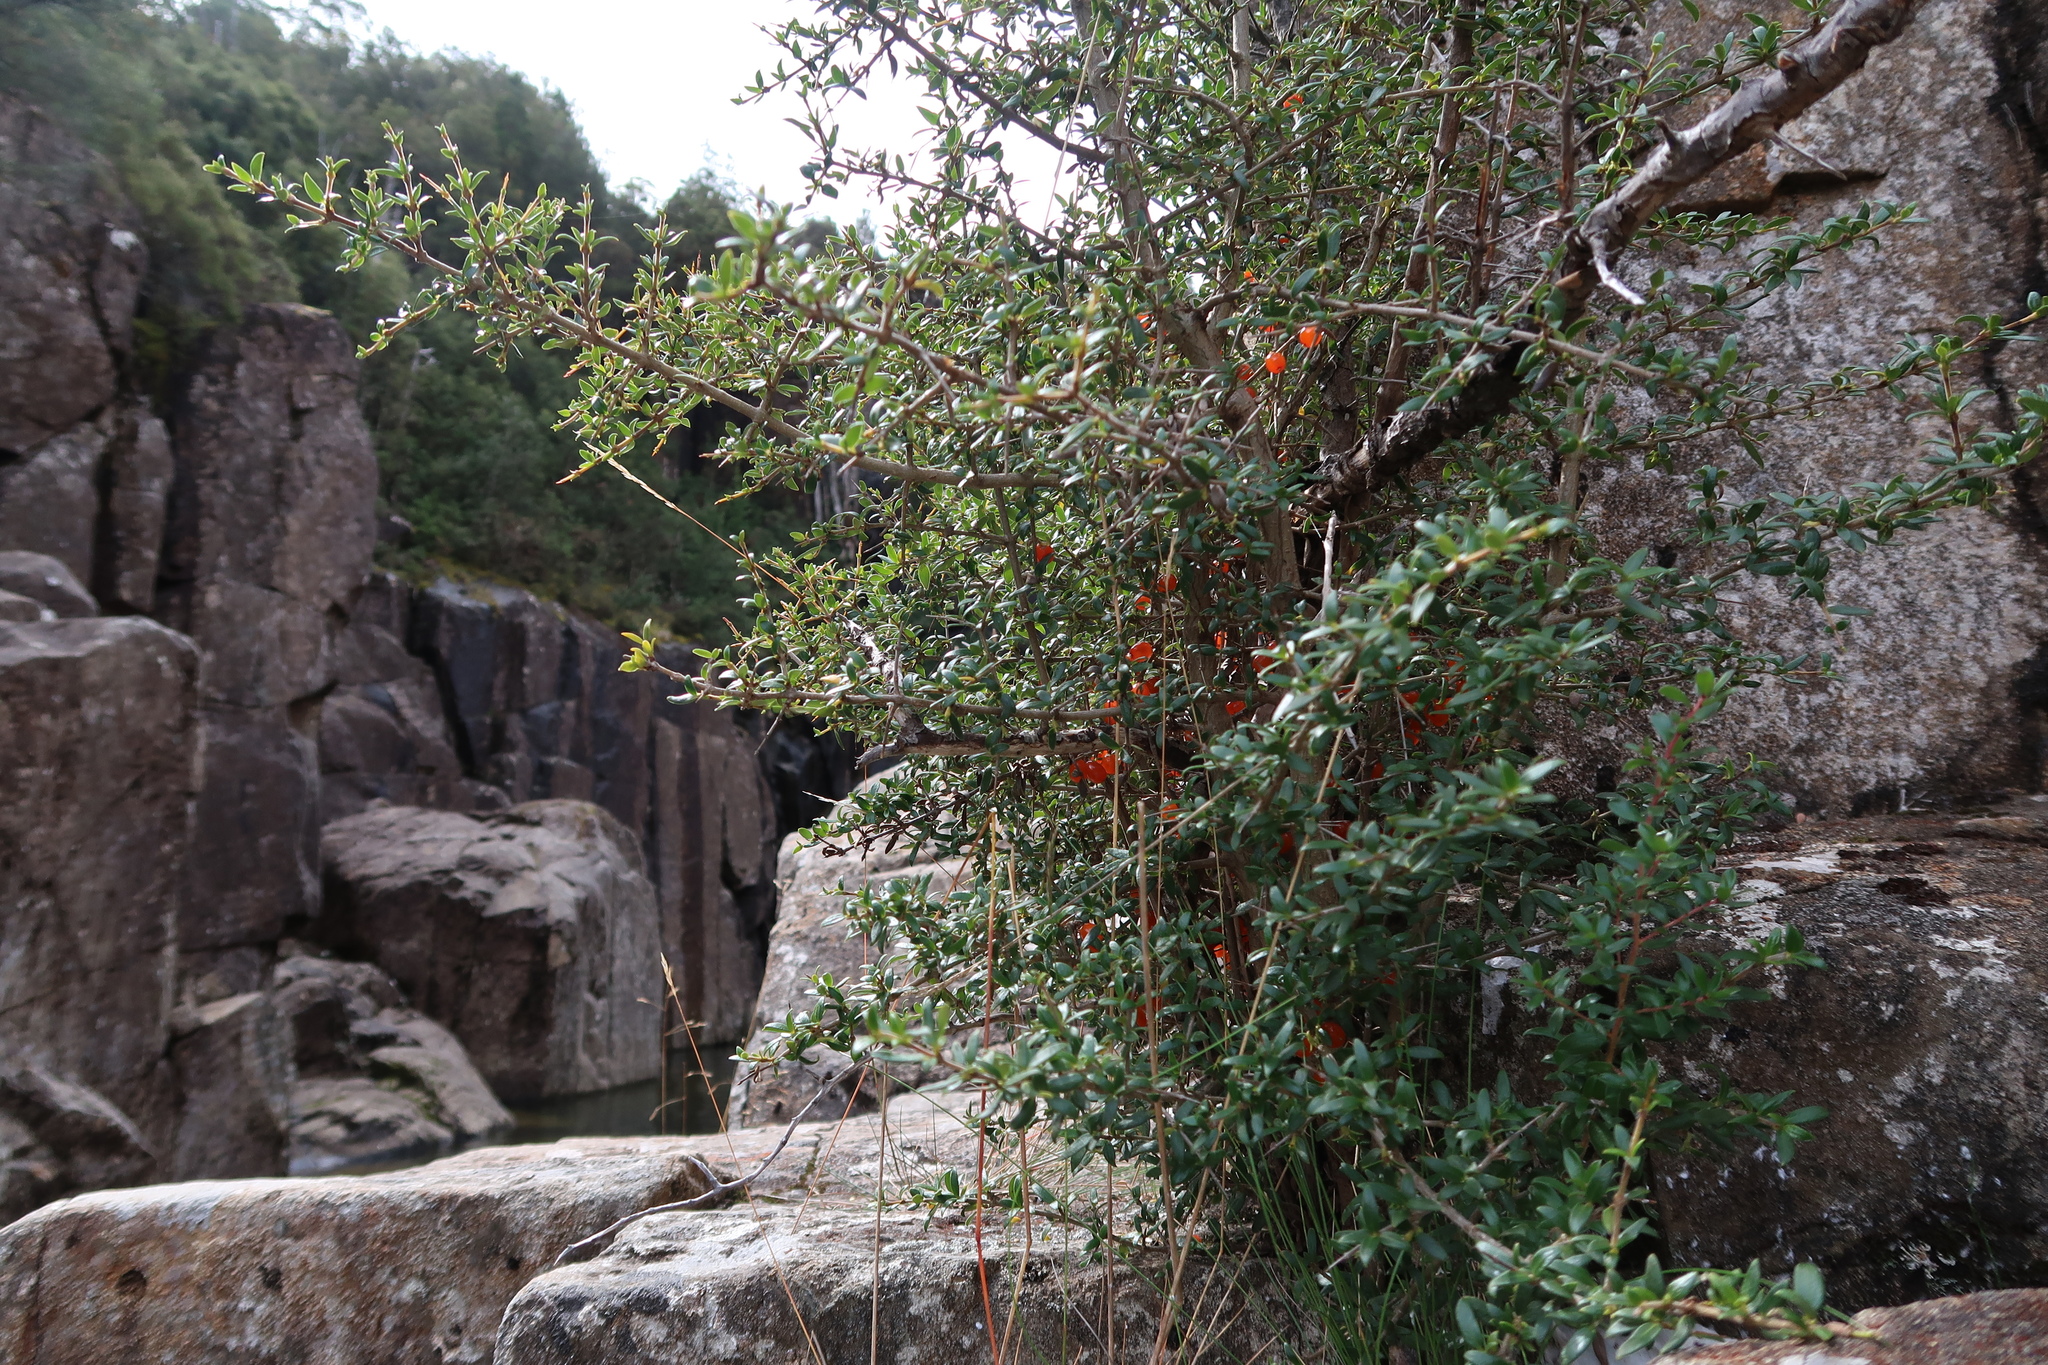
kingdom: Plantae
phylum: Tracheophyta
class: Magnoliopsida
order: Gentianales
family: Rubiaceae
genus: Coprosma
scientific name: Coprosma nitida
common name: Shining coprosma
